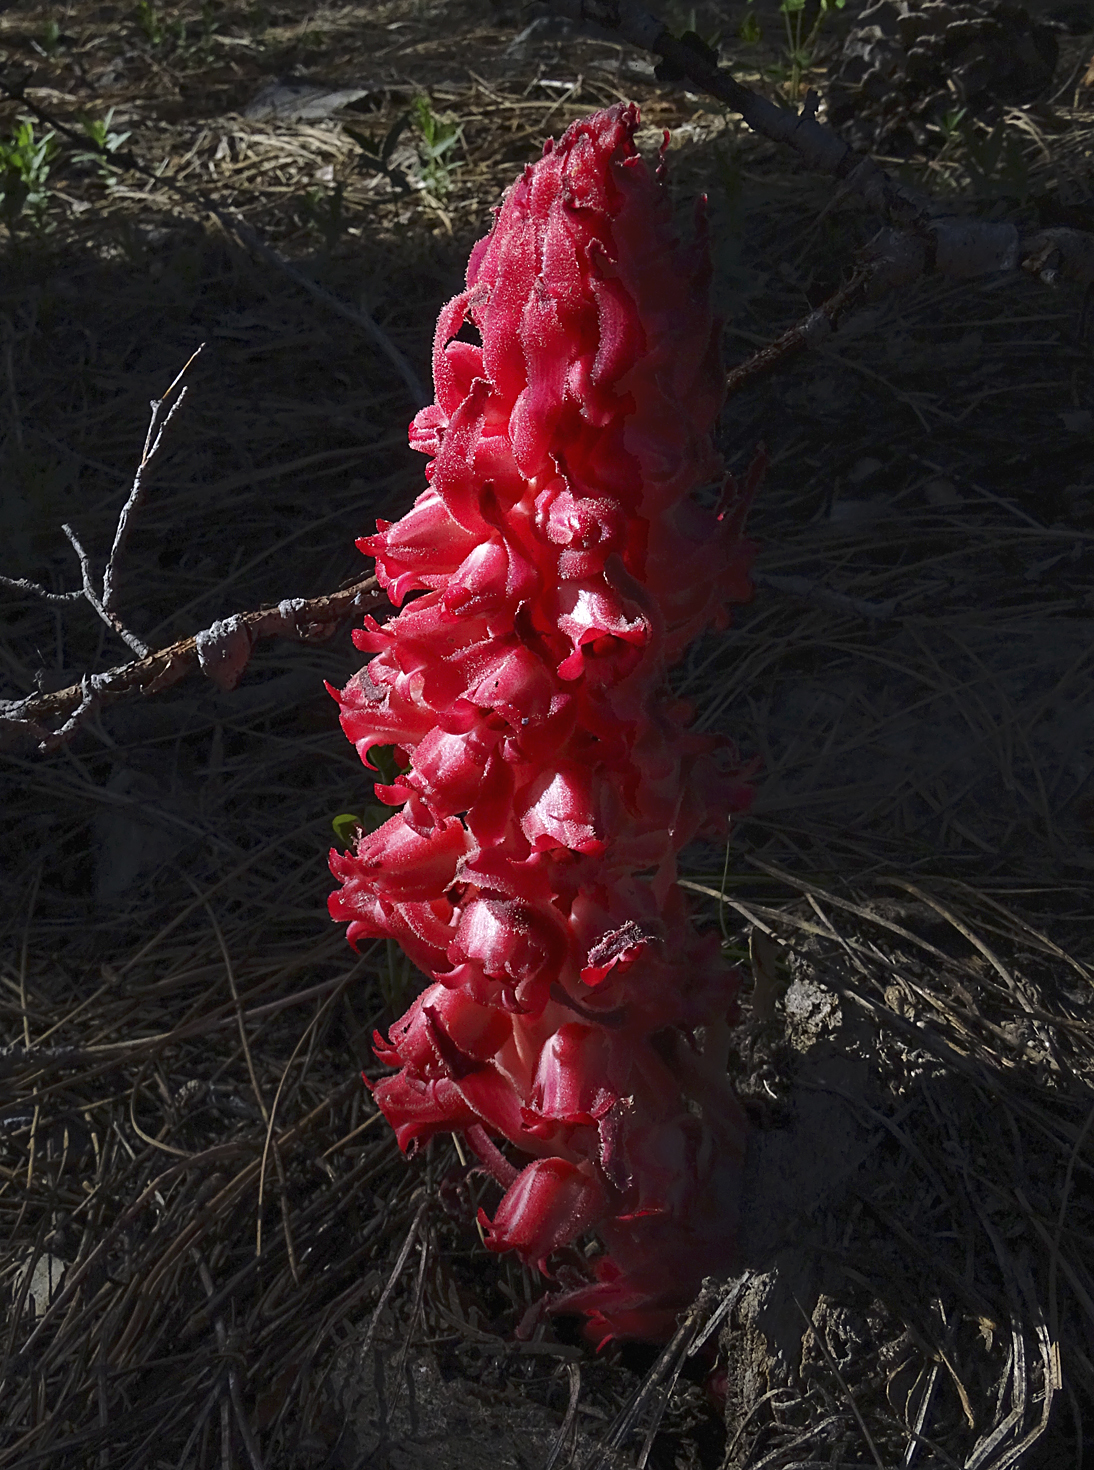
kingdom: Plantae
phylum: Tracheophyta
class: Magnoliopsida
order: Ericales
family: Ericaceae
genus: Sarcodes
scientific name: Sarcodes sanguinea
